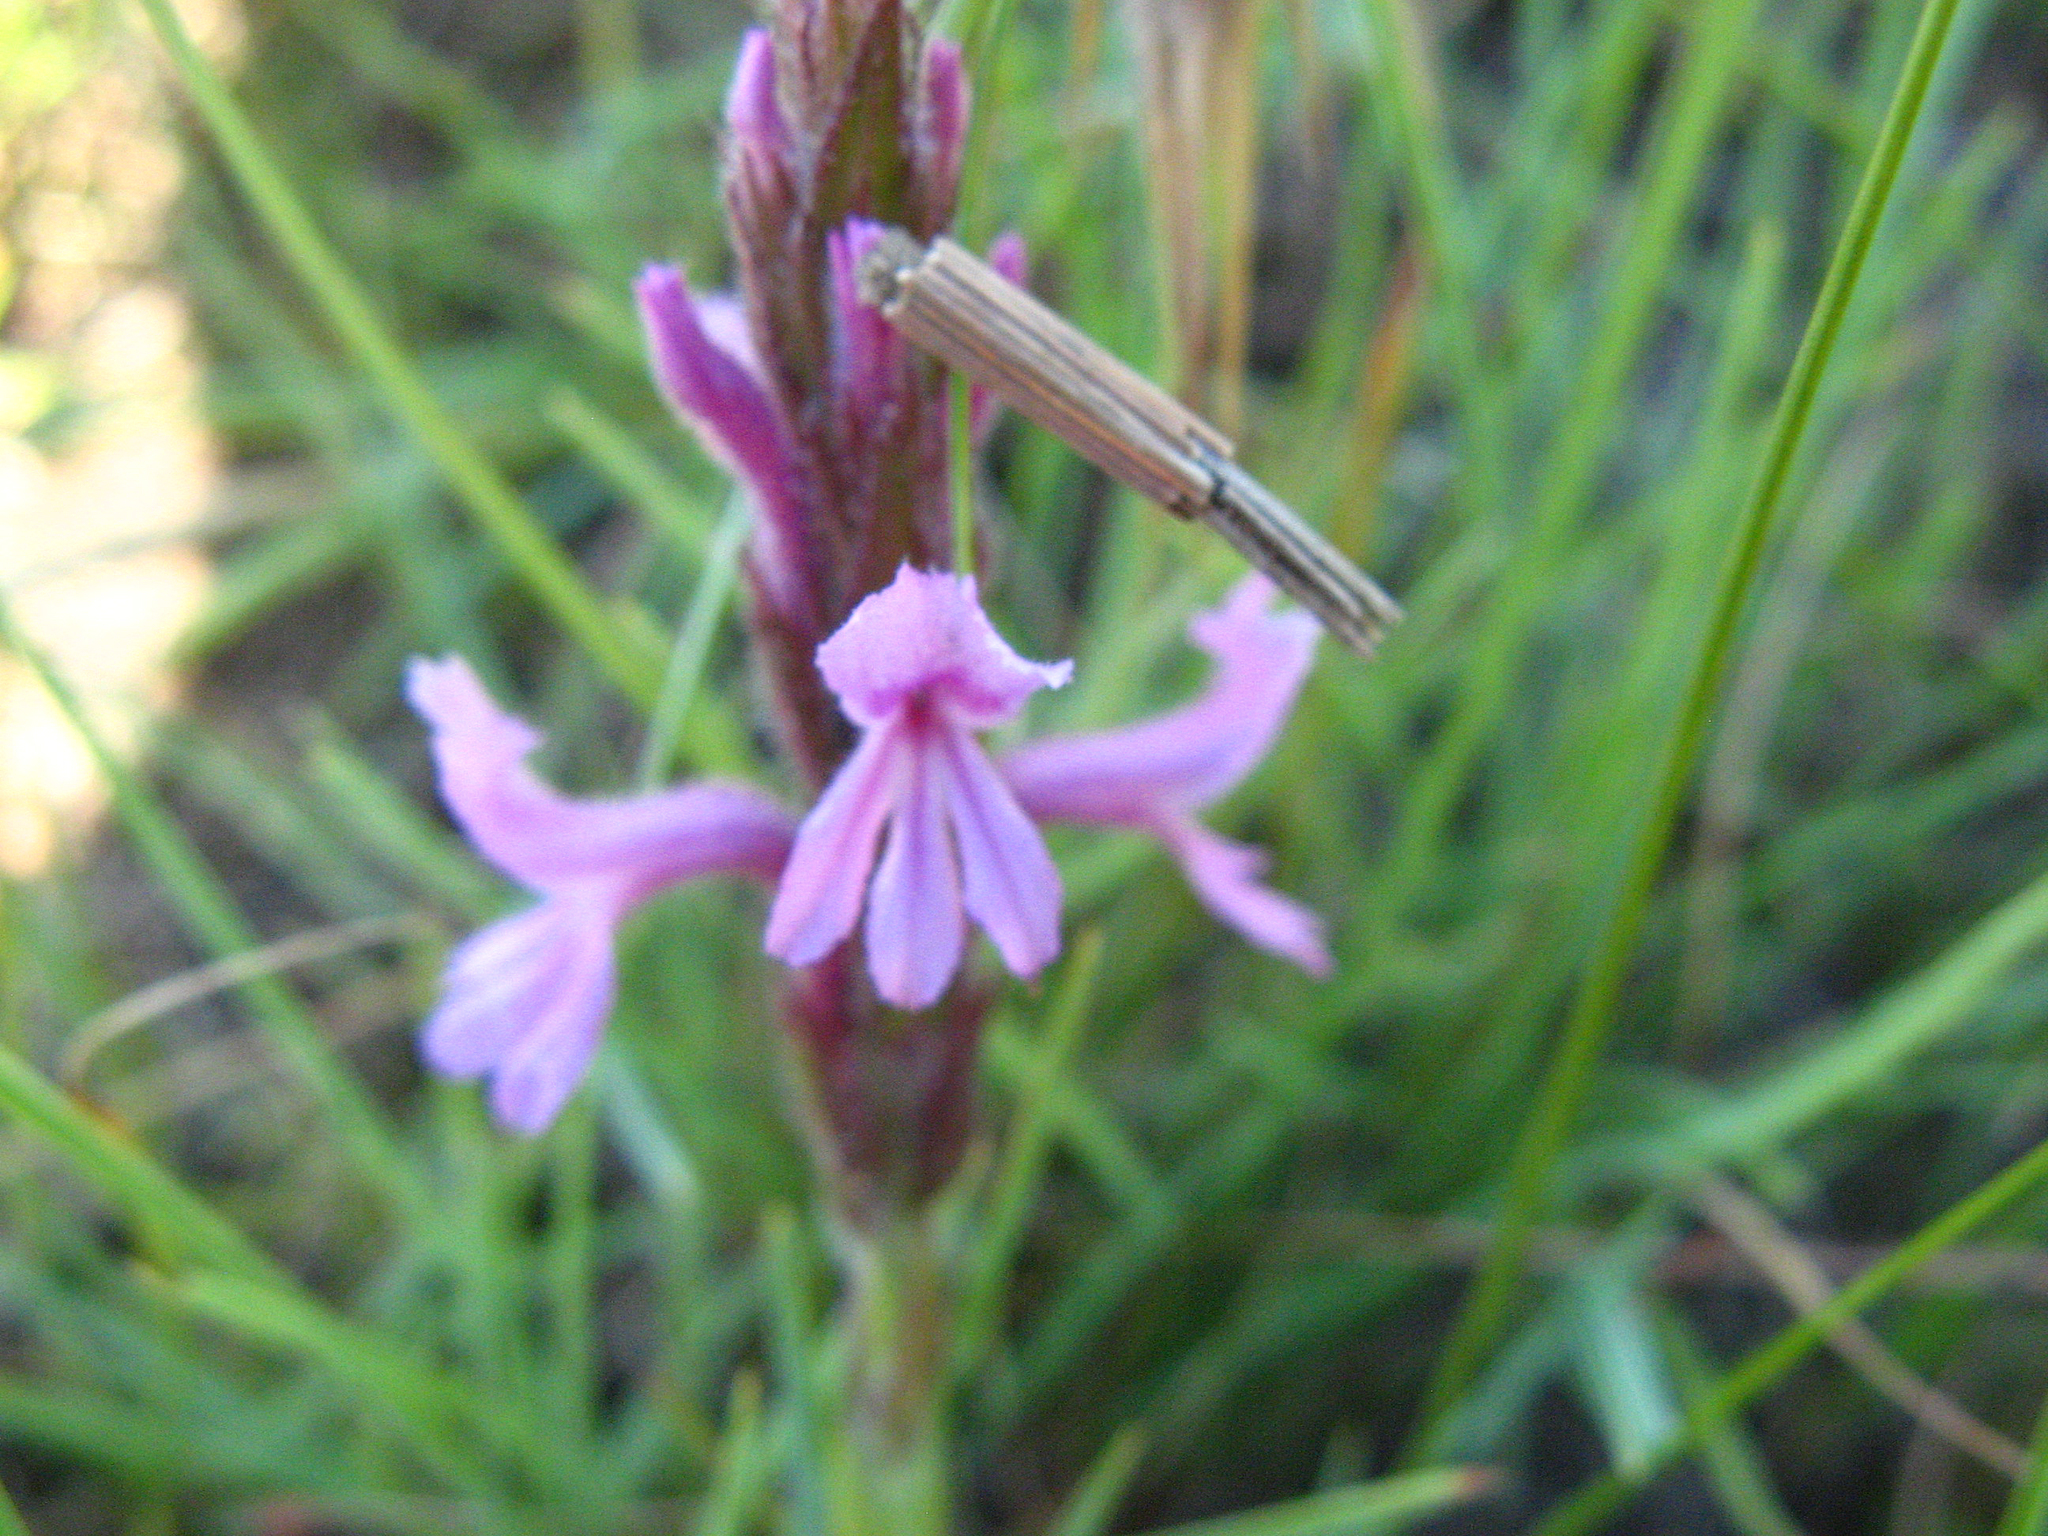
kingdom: Plantae
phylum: Tracheophyta
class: Magnoliopsida
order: Lamiales
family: Orobanchaceae
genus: Striga
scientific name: Striga bilabiata
